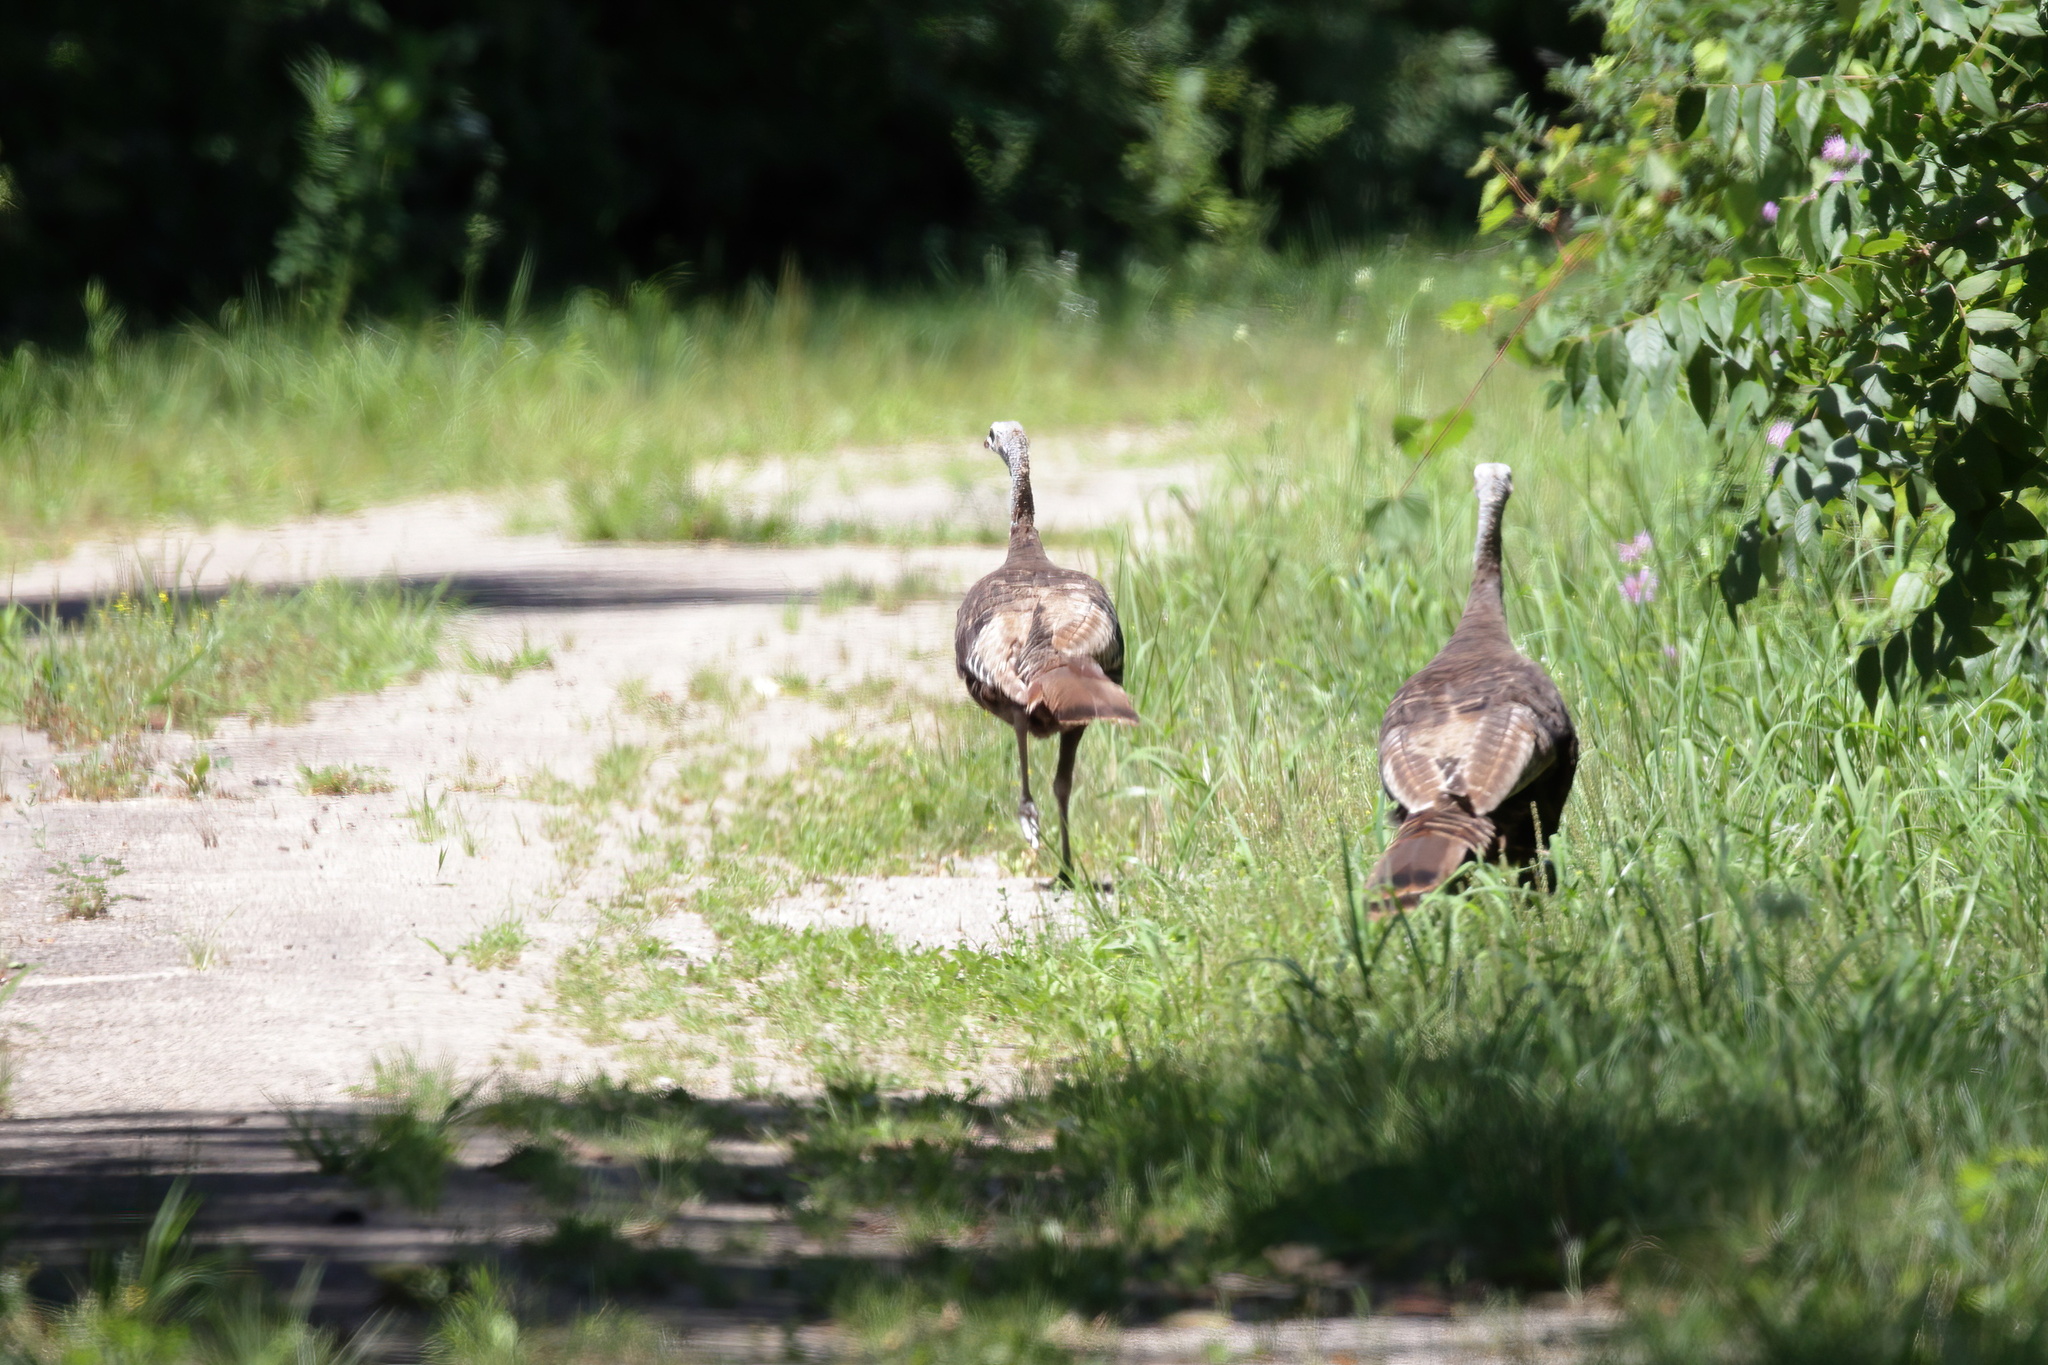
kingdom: Animalia
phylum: Chordata
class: Aves
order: Galliformes
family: Phasianidae
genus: Meleagris
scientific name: Meleagris gallopavo
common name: Wild turkey
